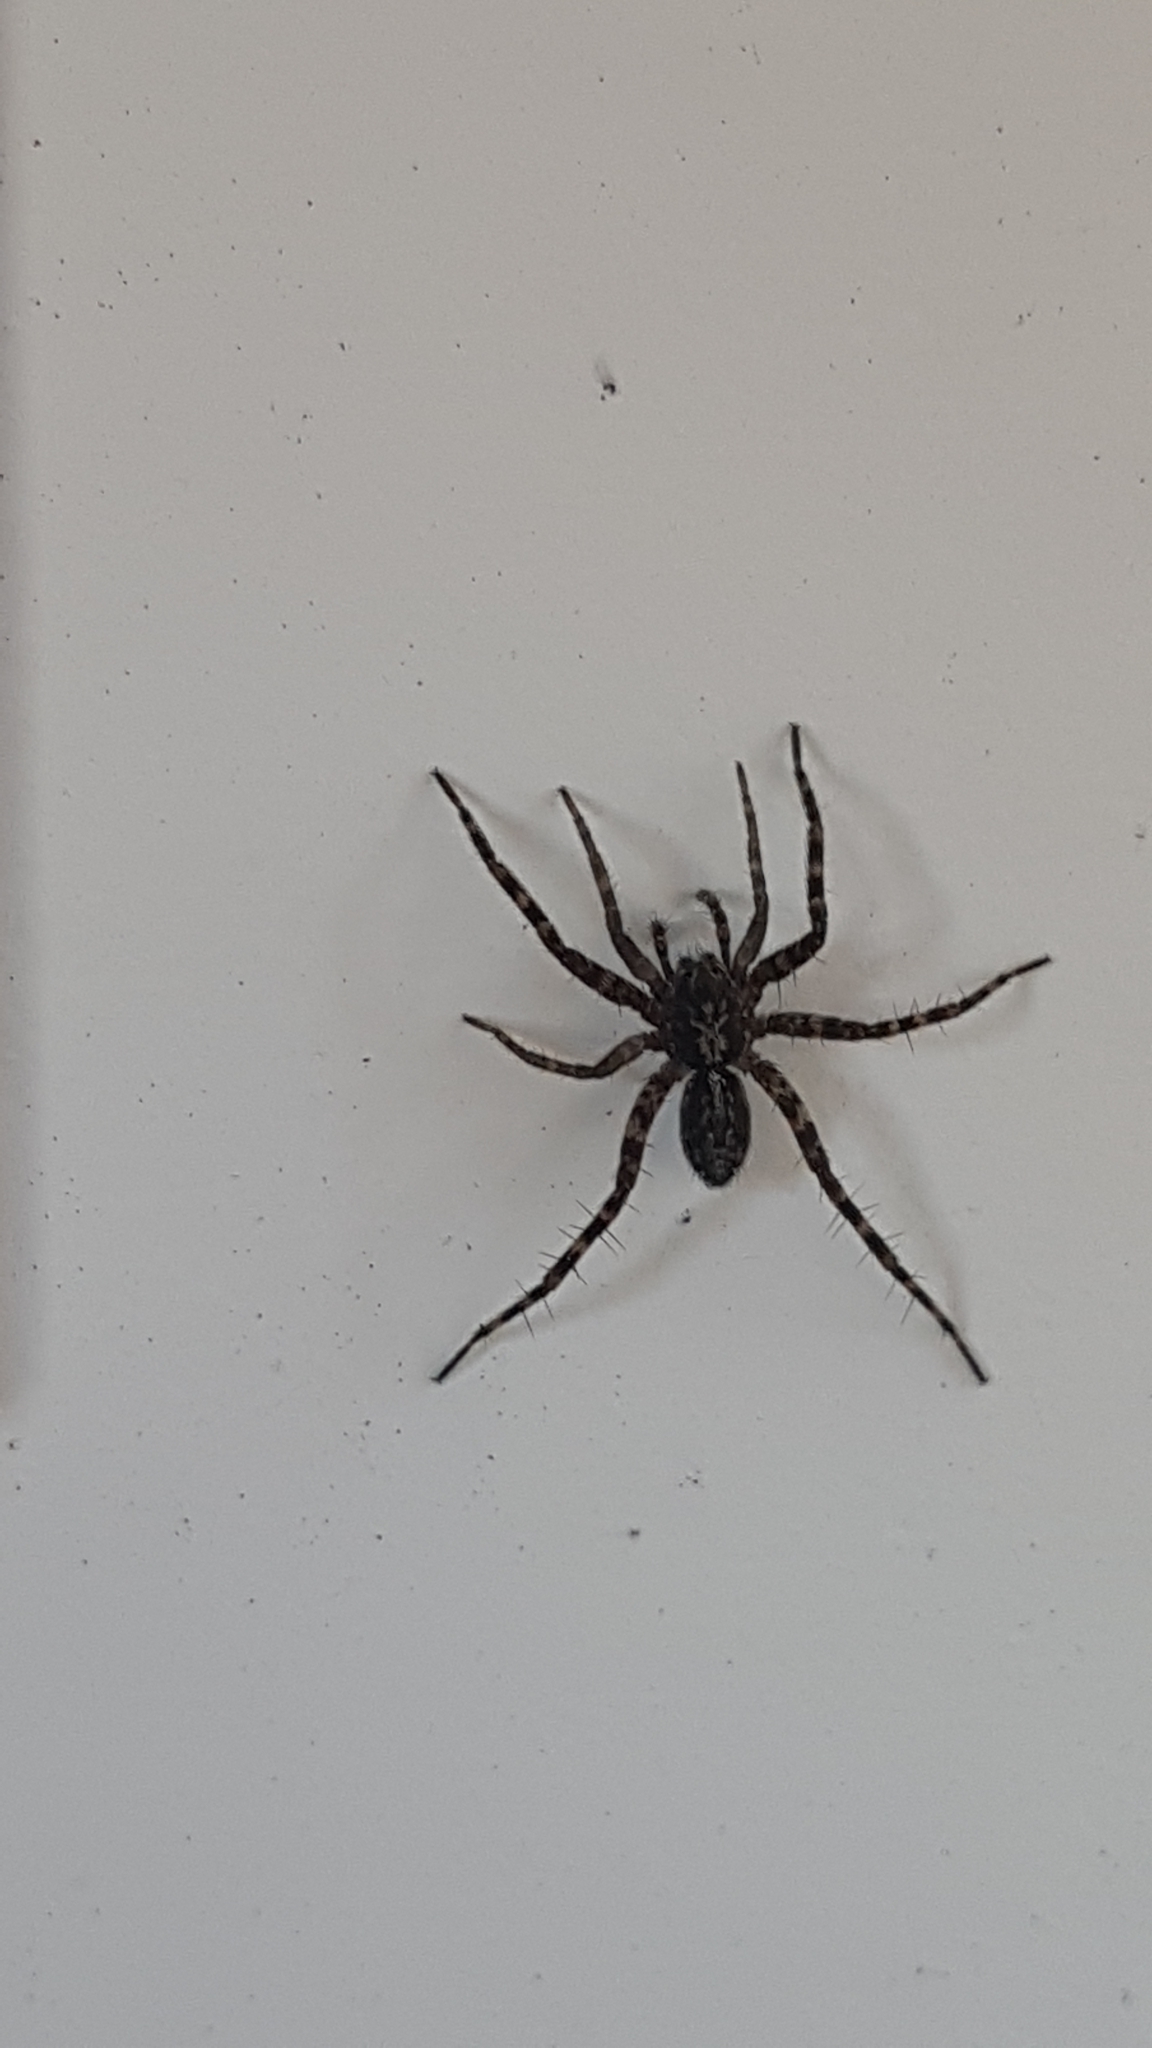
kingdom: Animalia
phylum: Arthropoda
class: Arachnida
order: Araneae
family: Lycosidae
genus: Acantholycosa
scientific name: Acantholycosa lignaria
